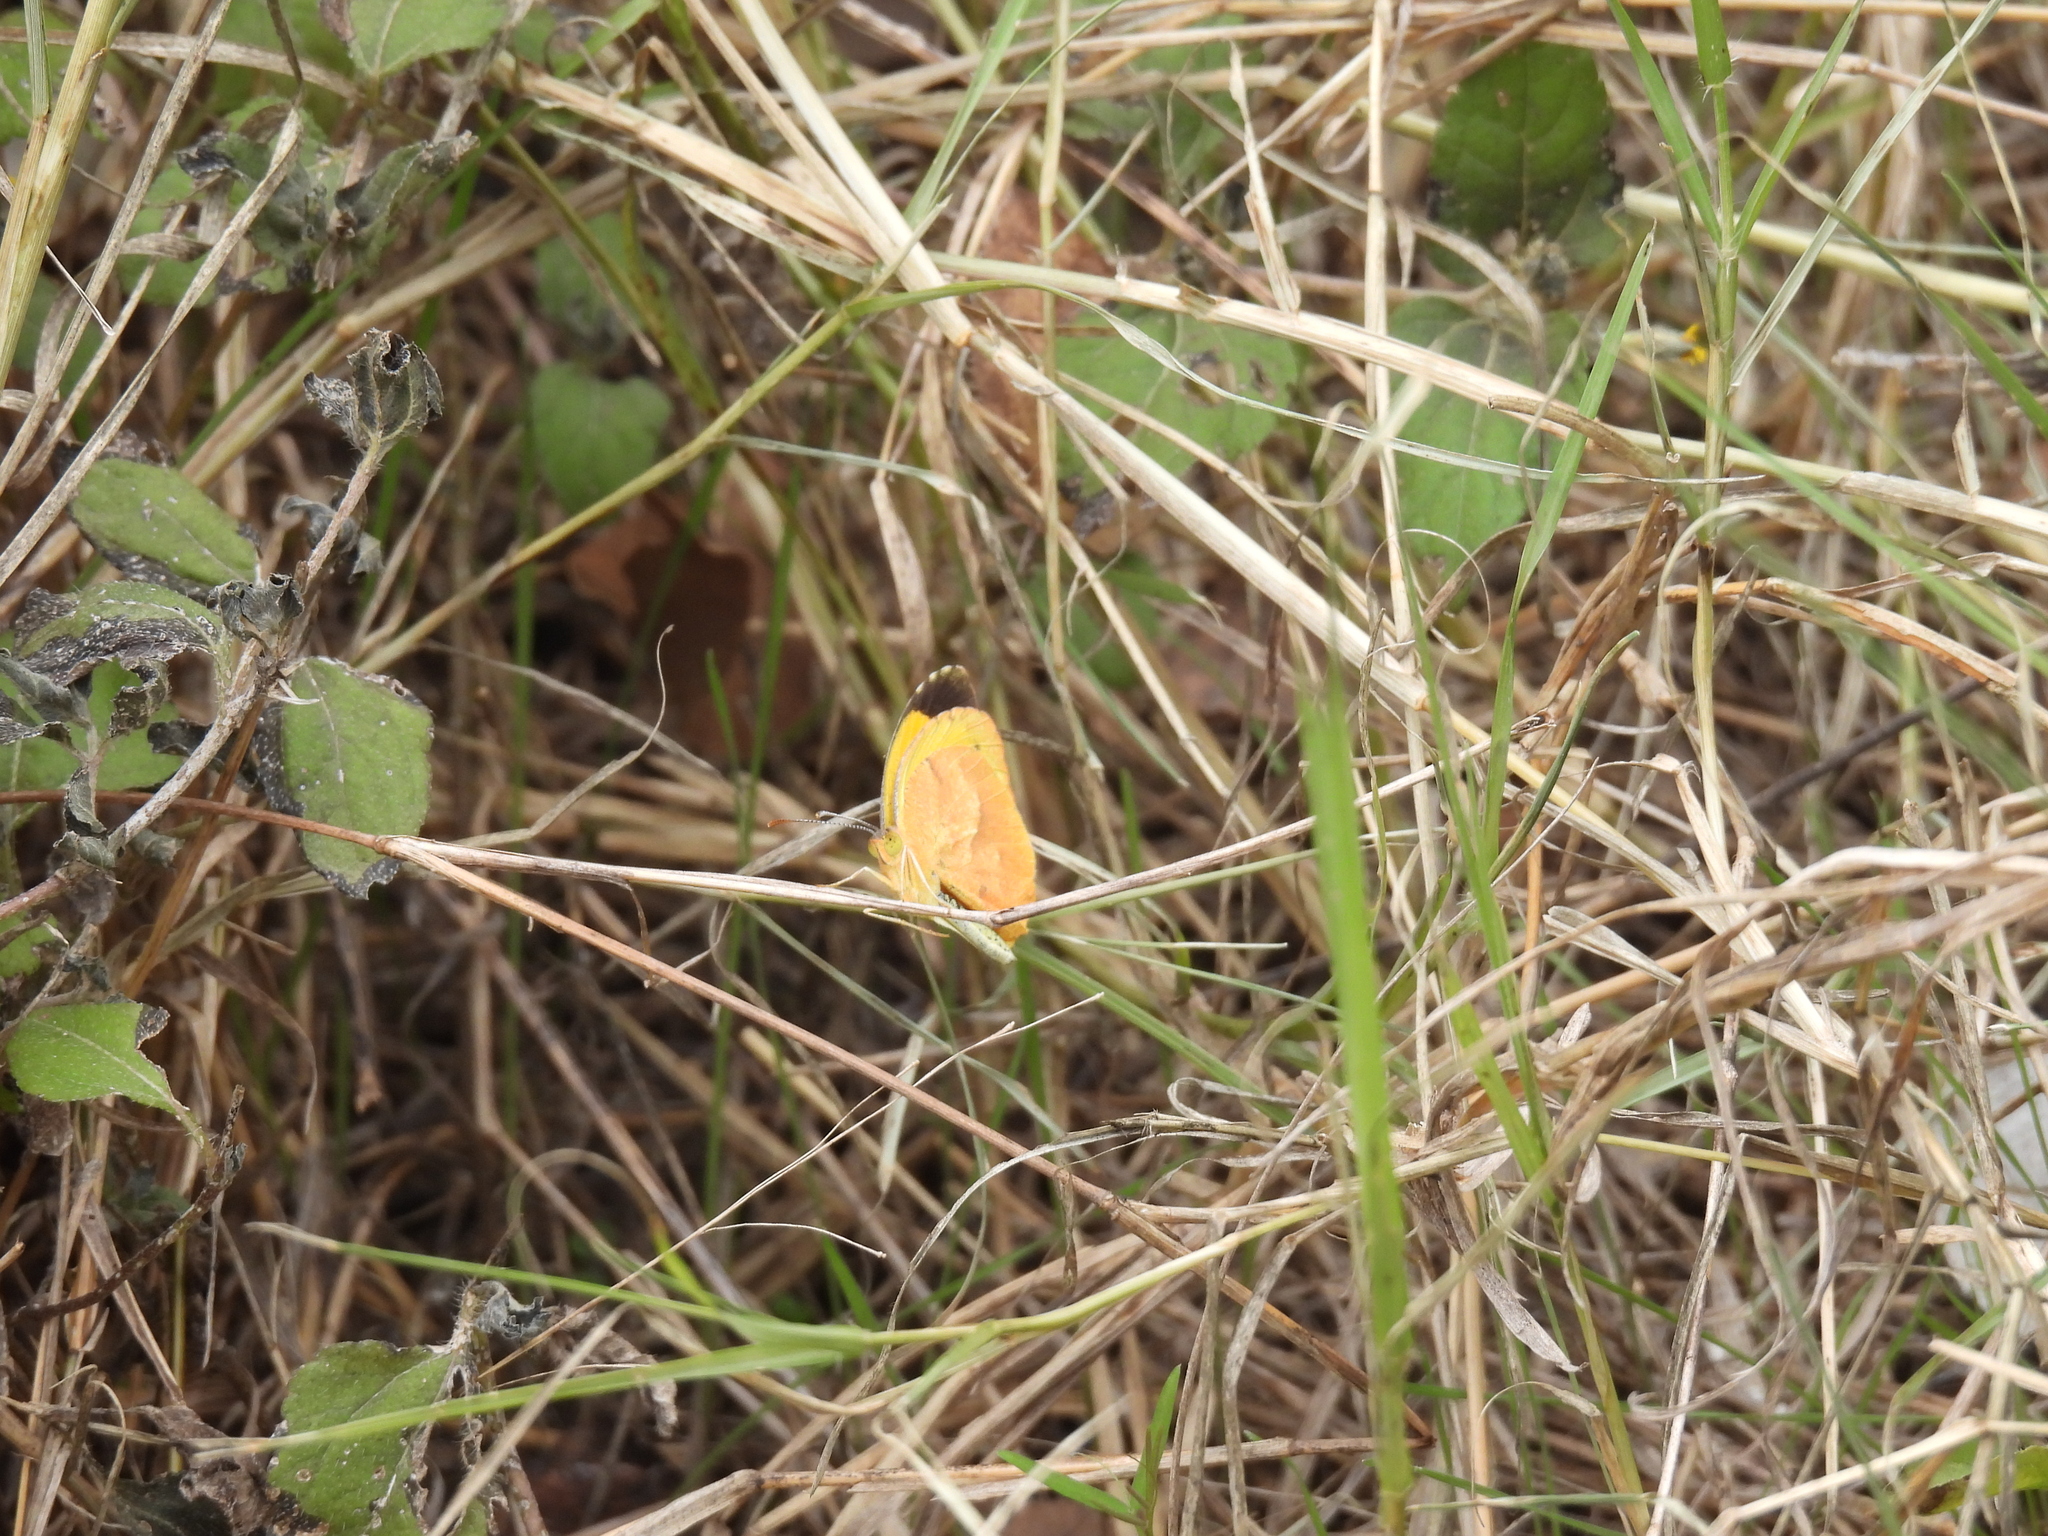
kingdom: Animalia
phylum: Arthropoda
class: Insecta
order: Lepidoptera
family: Pieridae
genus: Abaeis
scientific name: Abaeis nicippe
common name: Sleepy orange
